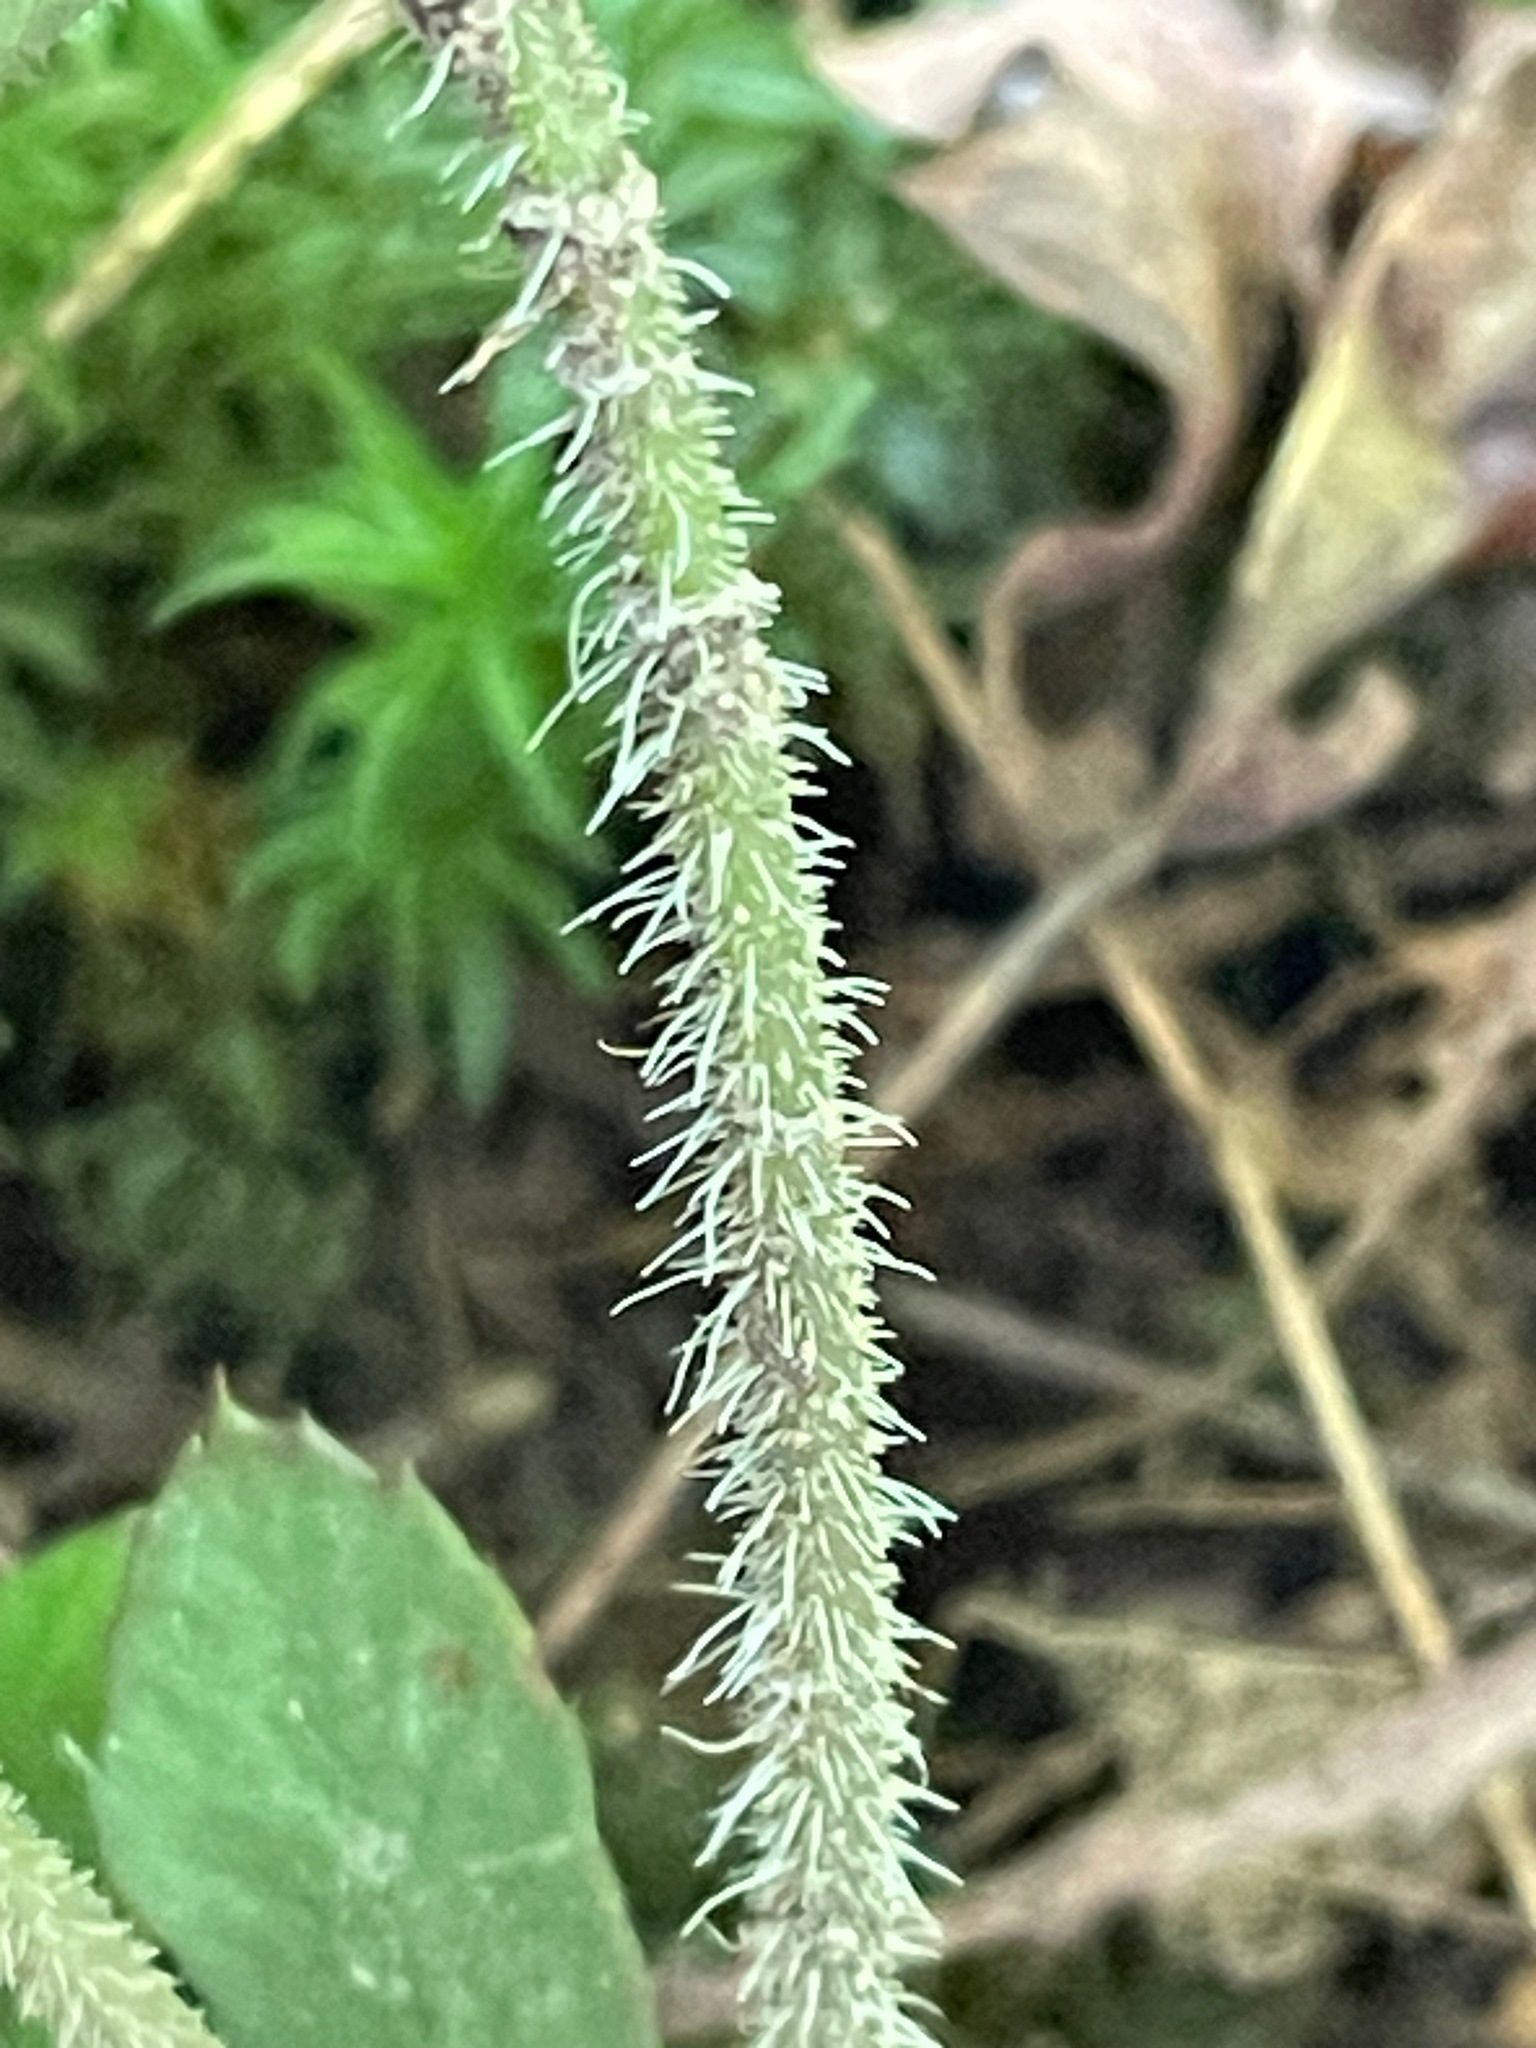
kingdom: Plantae
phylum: Tracheophyta
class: Magnoliopsida
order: Saxifragales
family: Saxifragaceae
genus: Tiarella
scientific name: Tiarella stolonifera
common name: Stoloniferous foamflower
